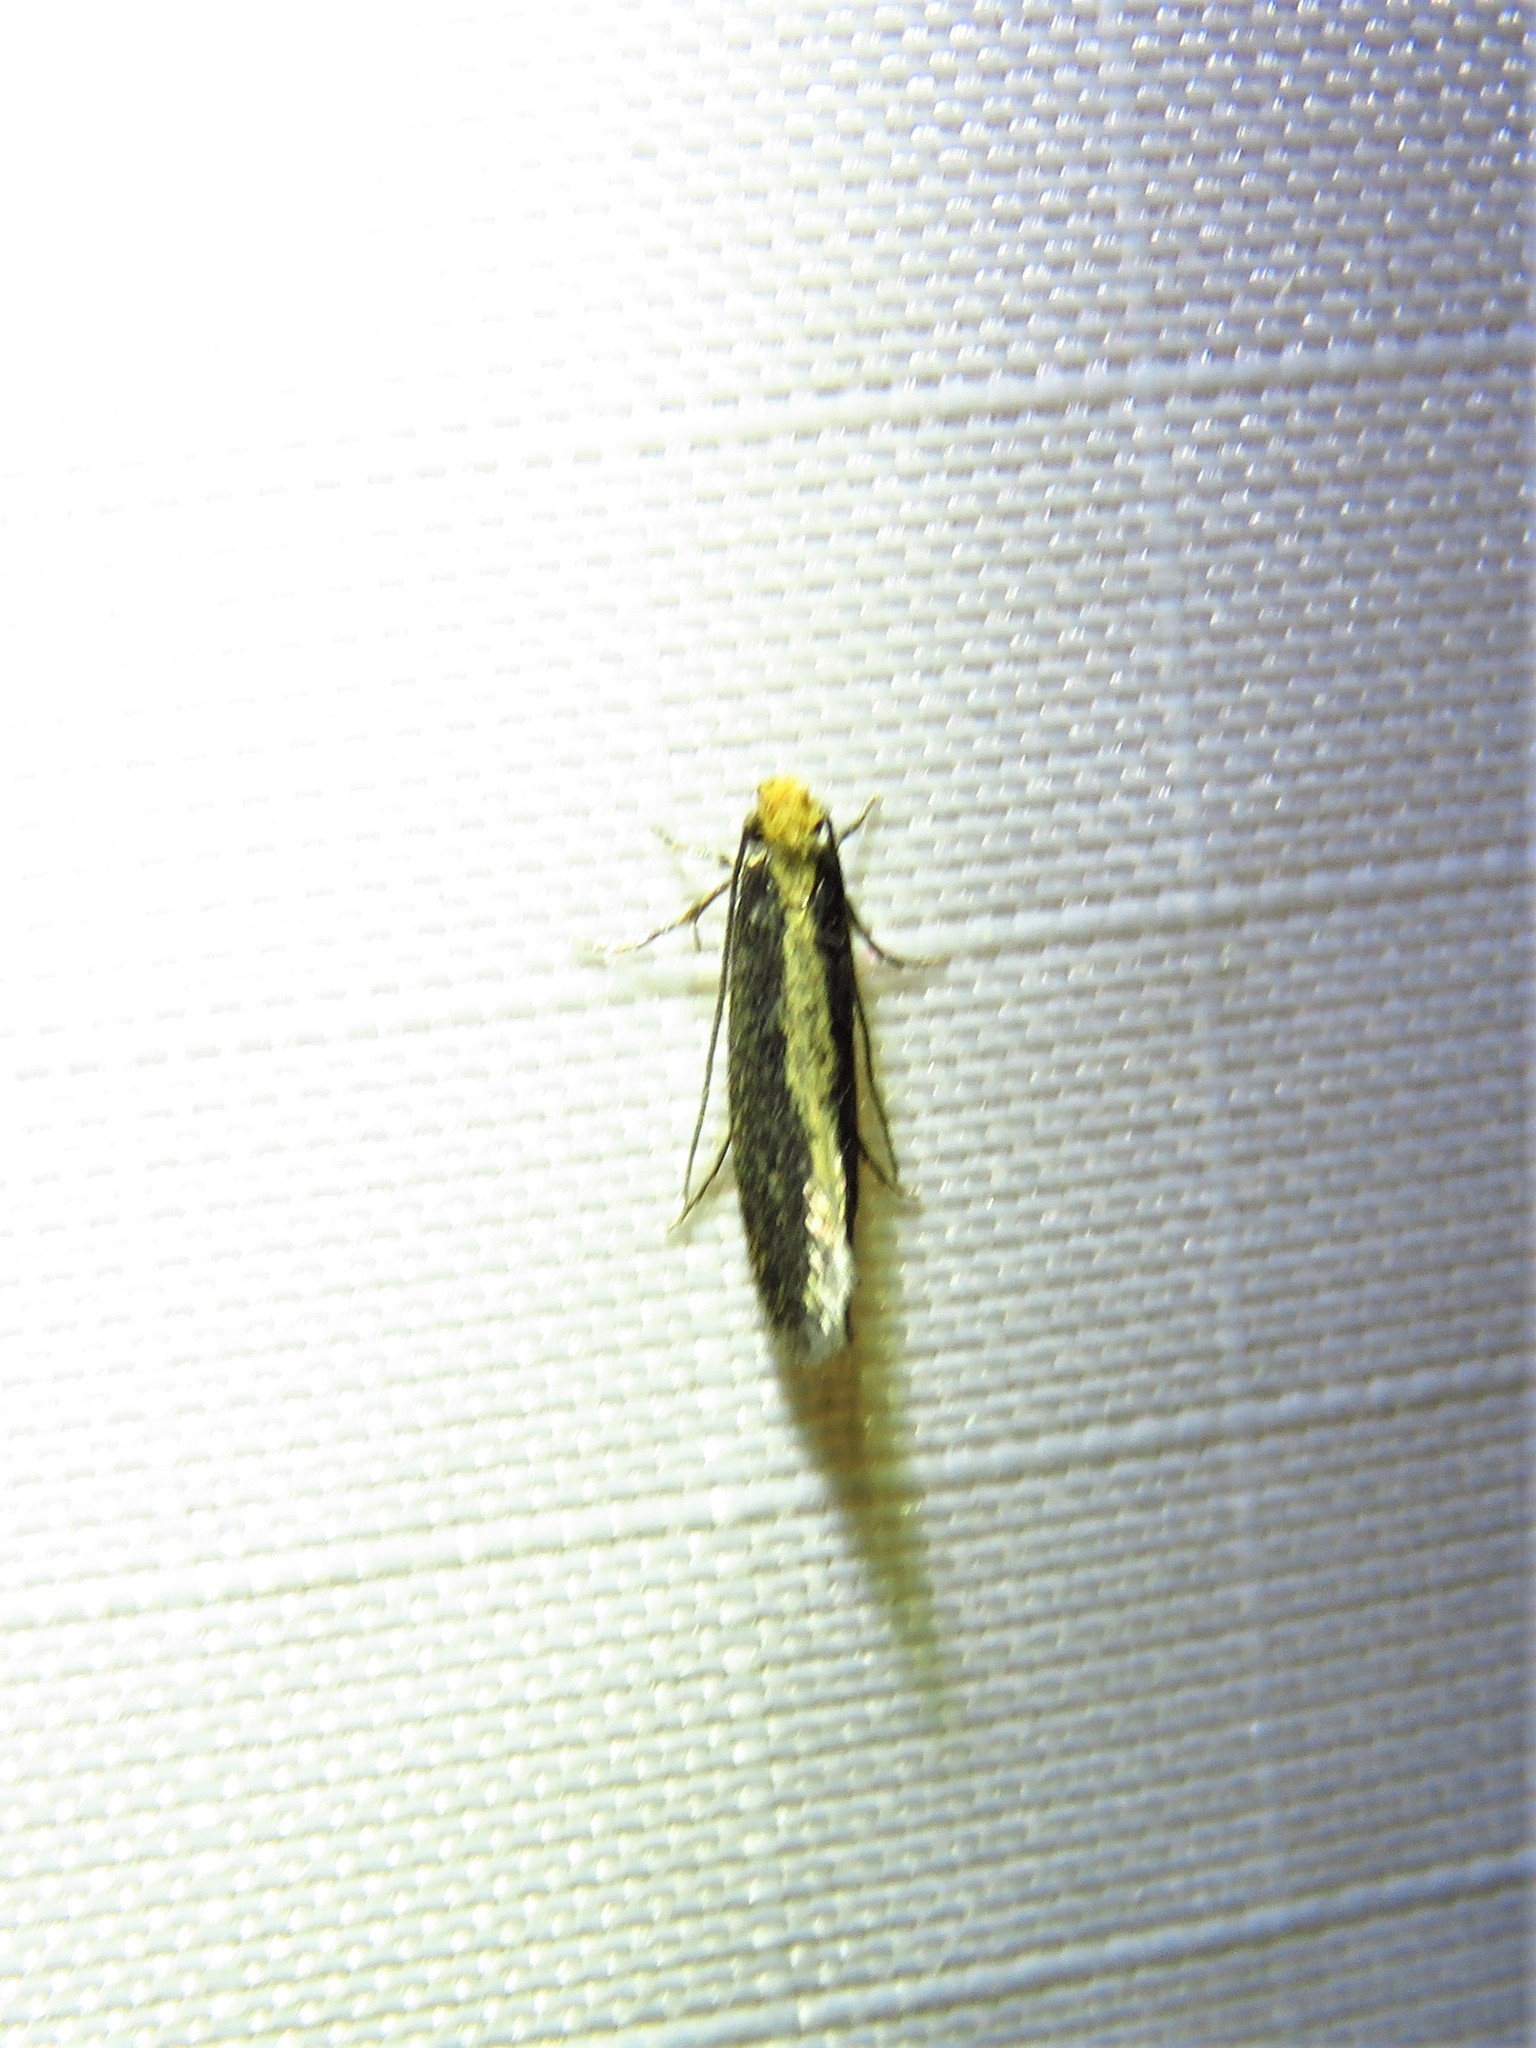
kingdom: Animalia
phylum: Arthropoda
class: Insecta
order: Lepidoptera
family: Tineidae
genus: Monopis
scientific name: Monopis crocicapitella
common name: Moth
